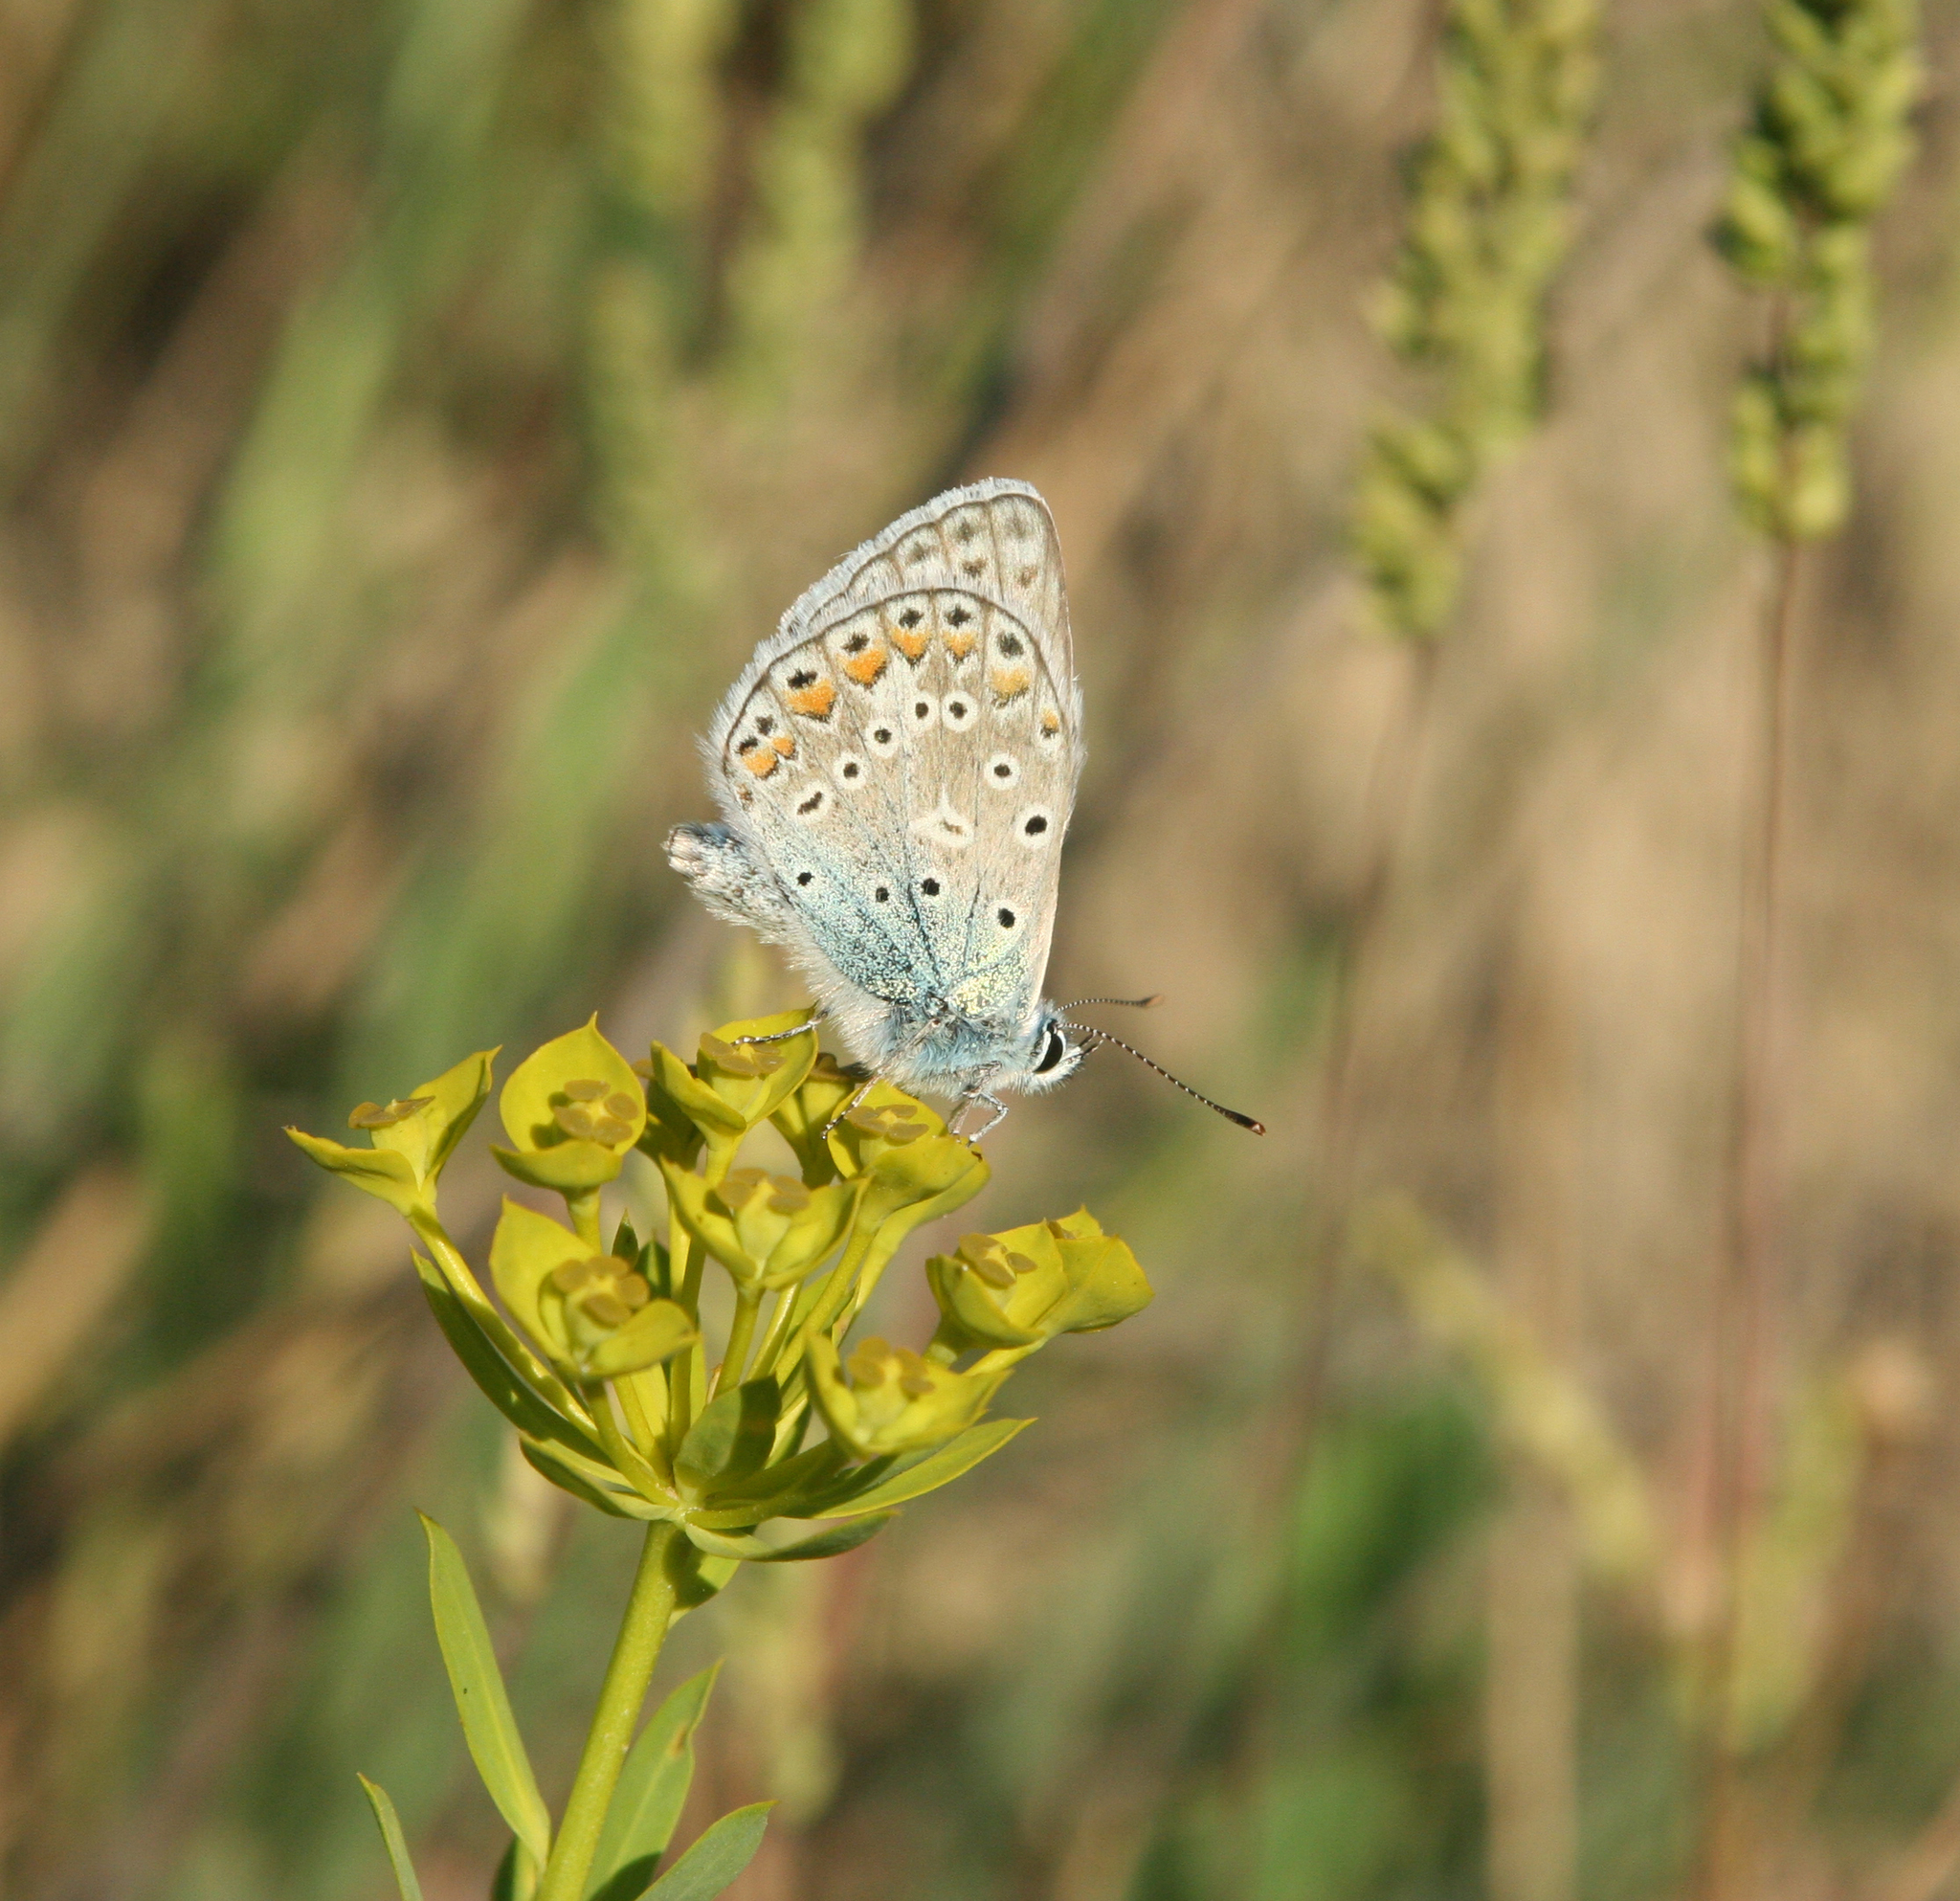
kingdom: Plantae
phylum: Tracheophyta
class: Magnoliopsida
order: Malpighiales
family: Euphorbiaceae
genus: Euphorbia
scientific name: Euphorbia seguieriana
